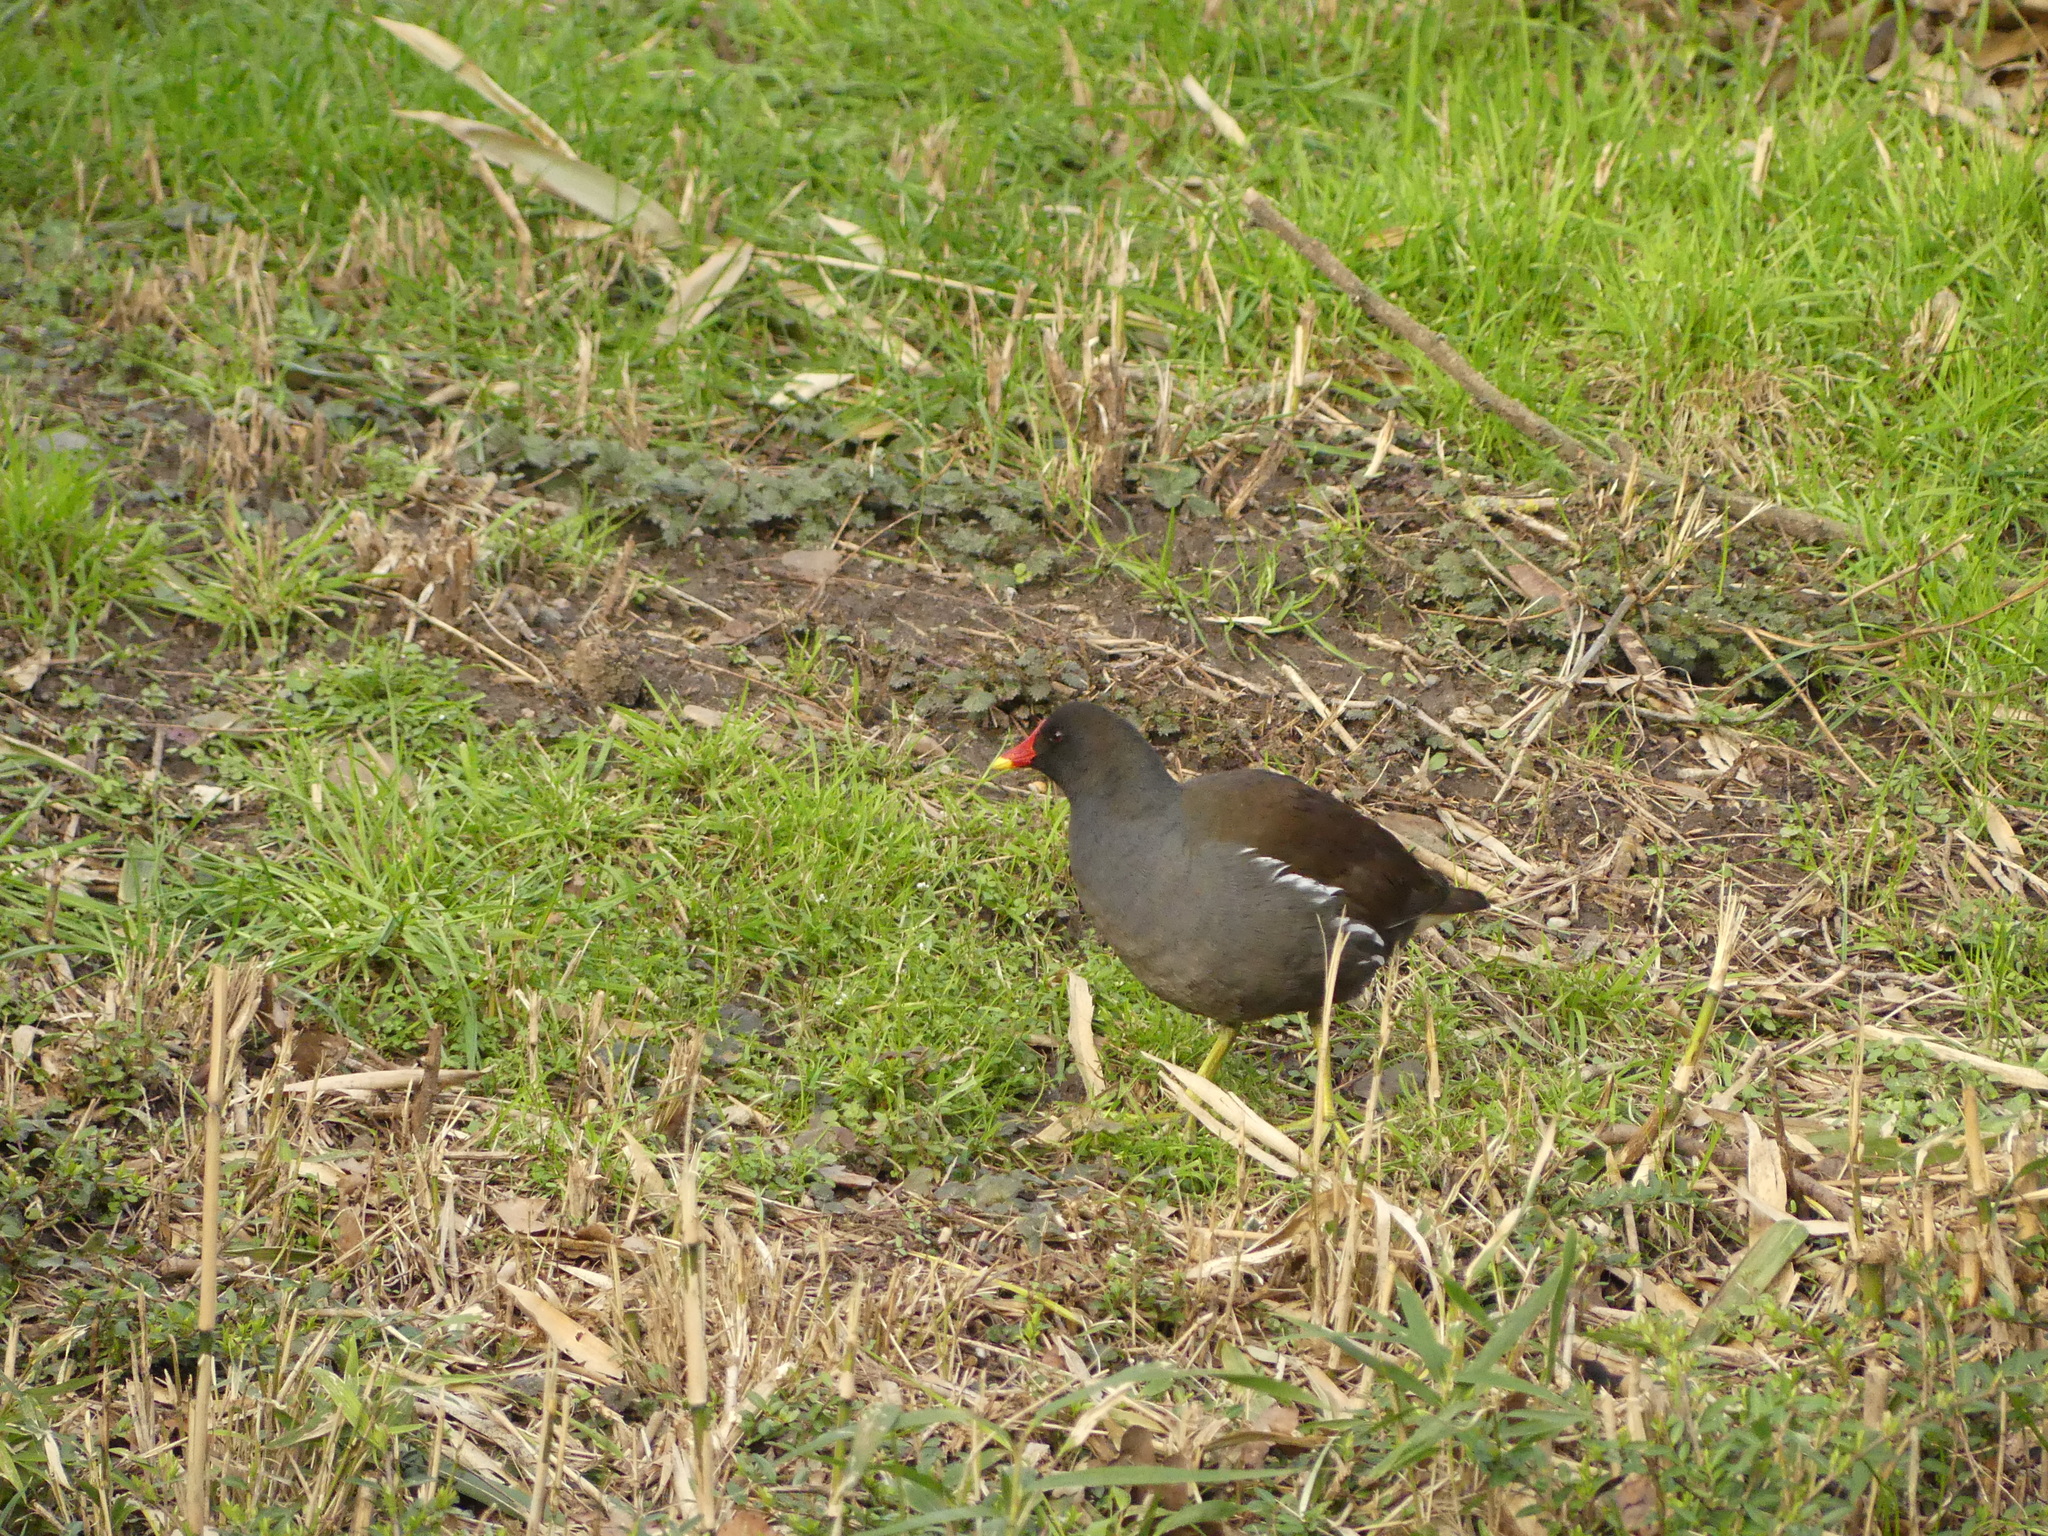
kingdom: Animalia
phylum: Chordata
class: Aves
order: Gruiformes
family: Rallidae
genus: Gallinula
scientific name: Gallinula chloropus
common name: Common moorhen
